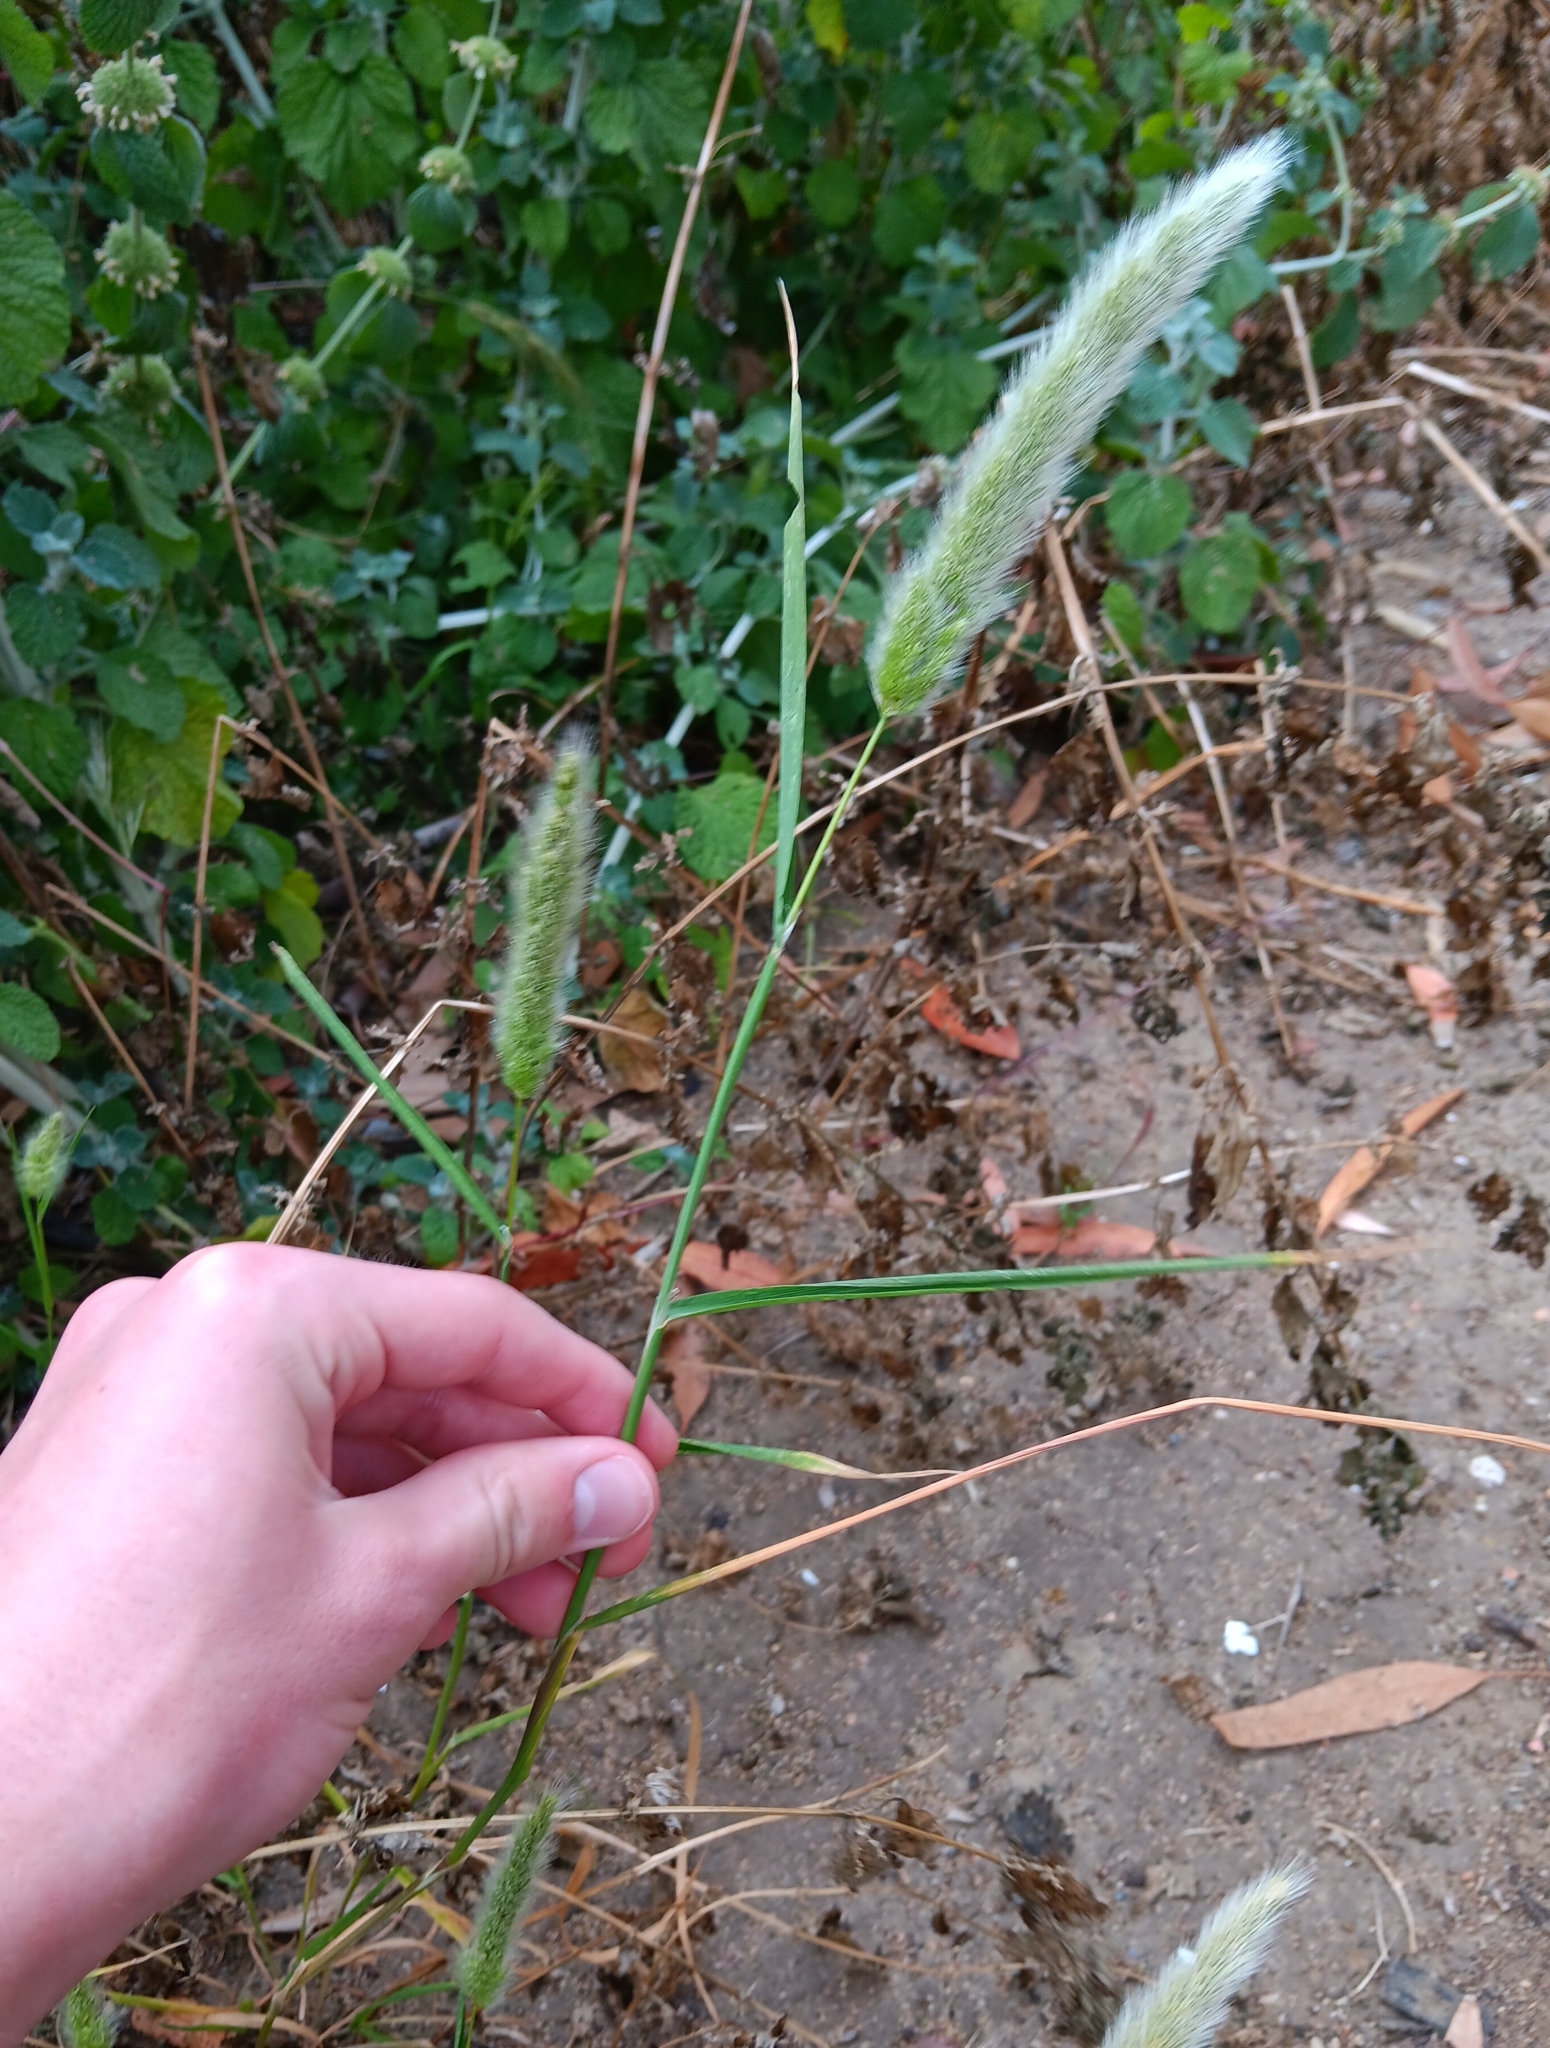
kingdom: Plantae
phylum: Tracheophyta
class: Liliopsida
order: Poales
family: Poaceae
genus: Polypogon
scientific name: Polypogon monspeliensis
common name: Annual rabbitsfoot grass
